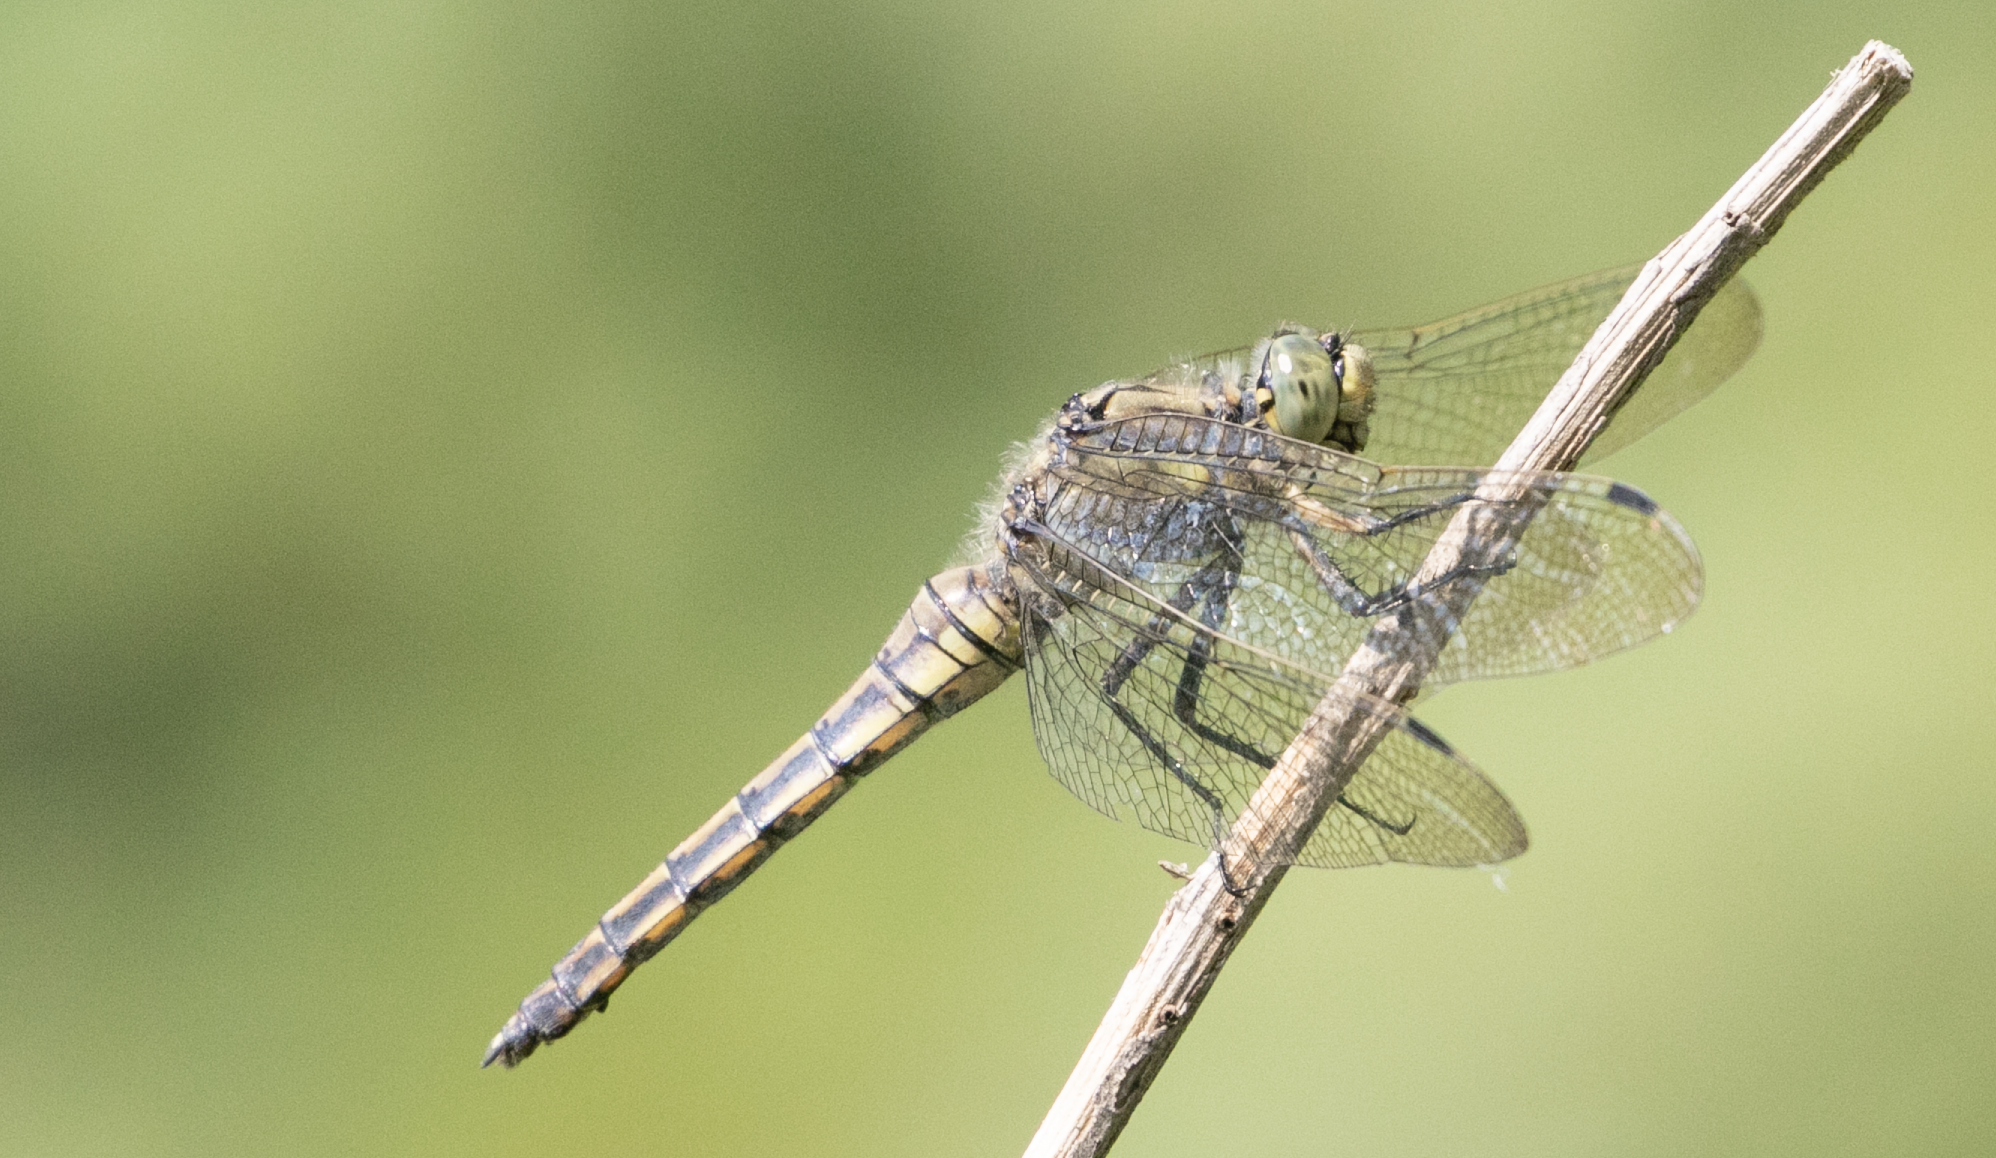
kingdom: Animalia
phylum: Arthropoda
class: Insecta
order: Odonata
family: Libellulidae
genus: Orthetrum
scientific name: Orthetrum cancellatum
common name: Black-tailed skimmer
